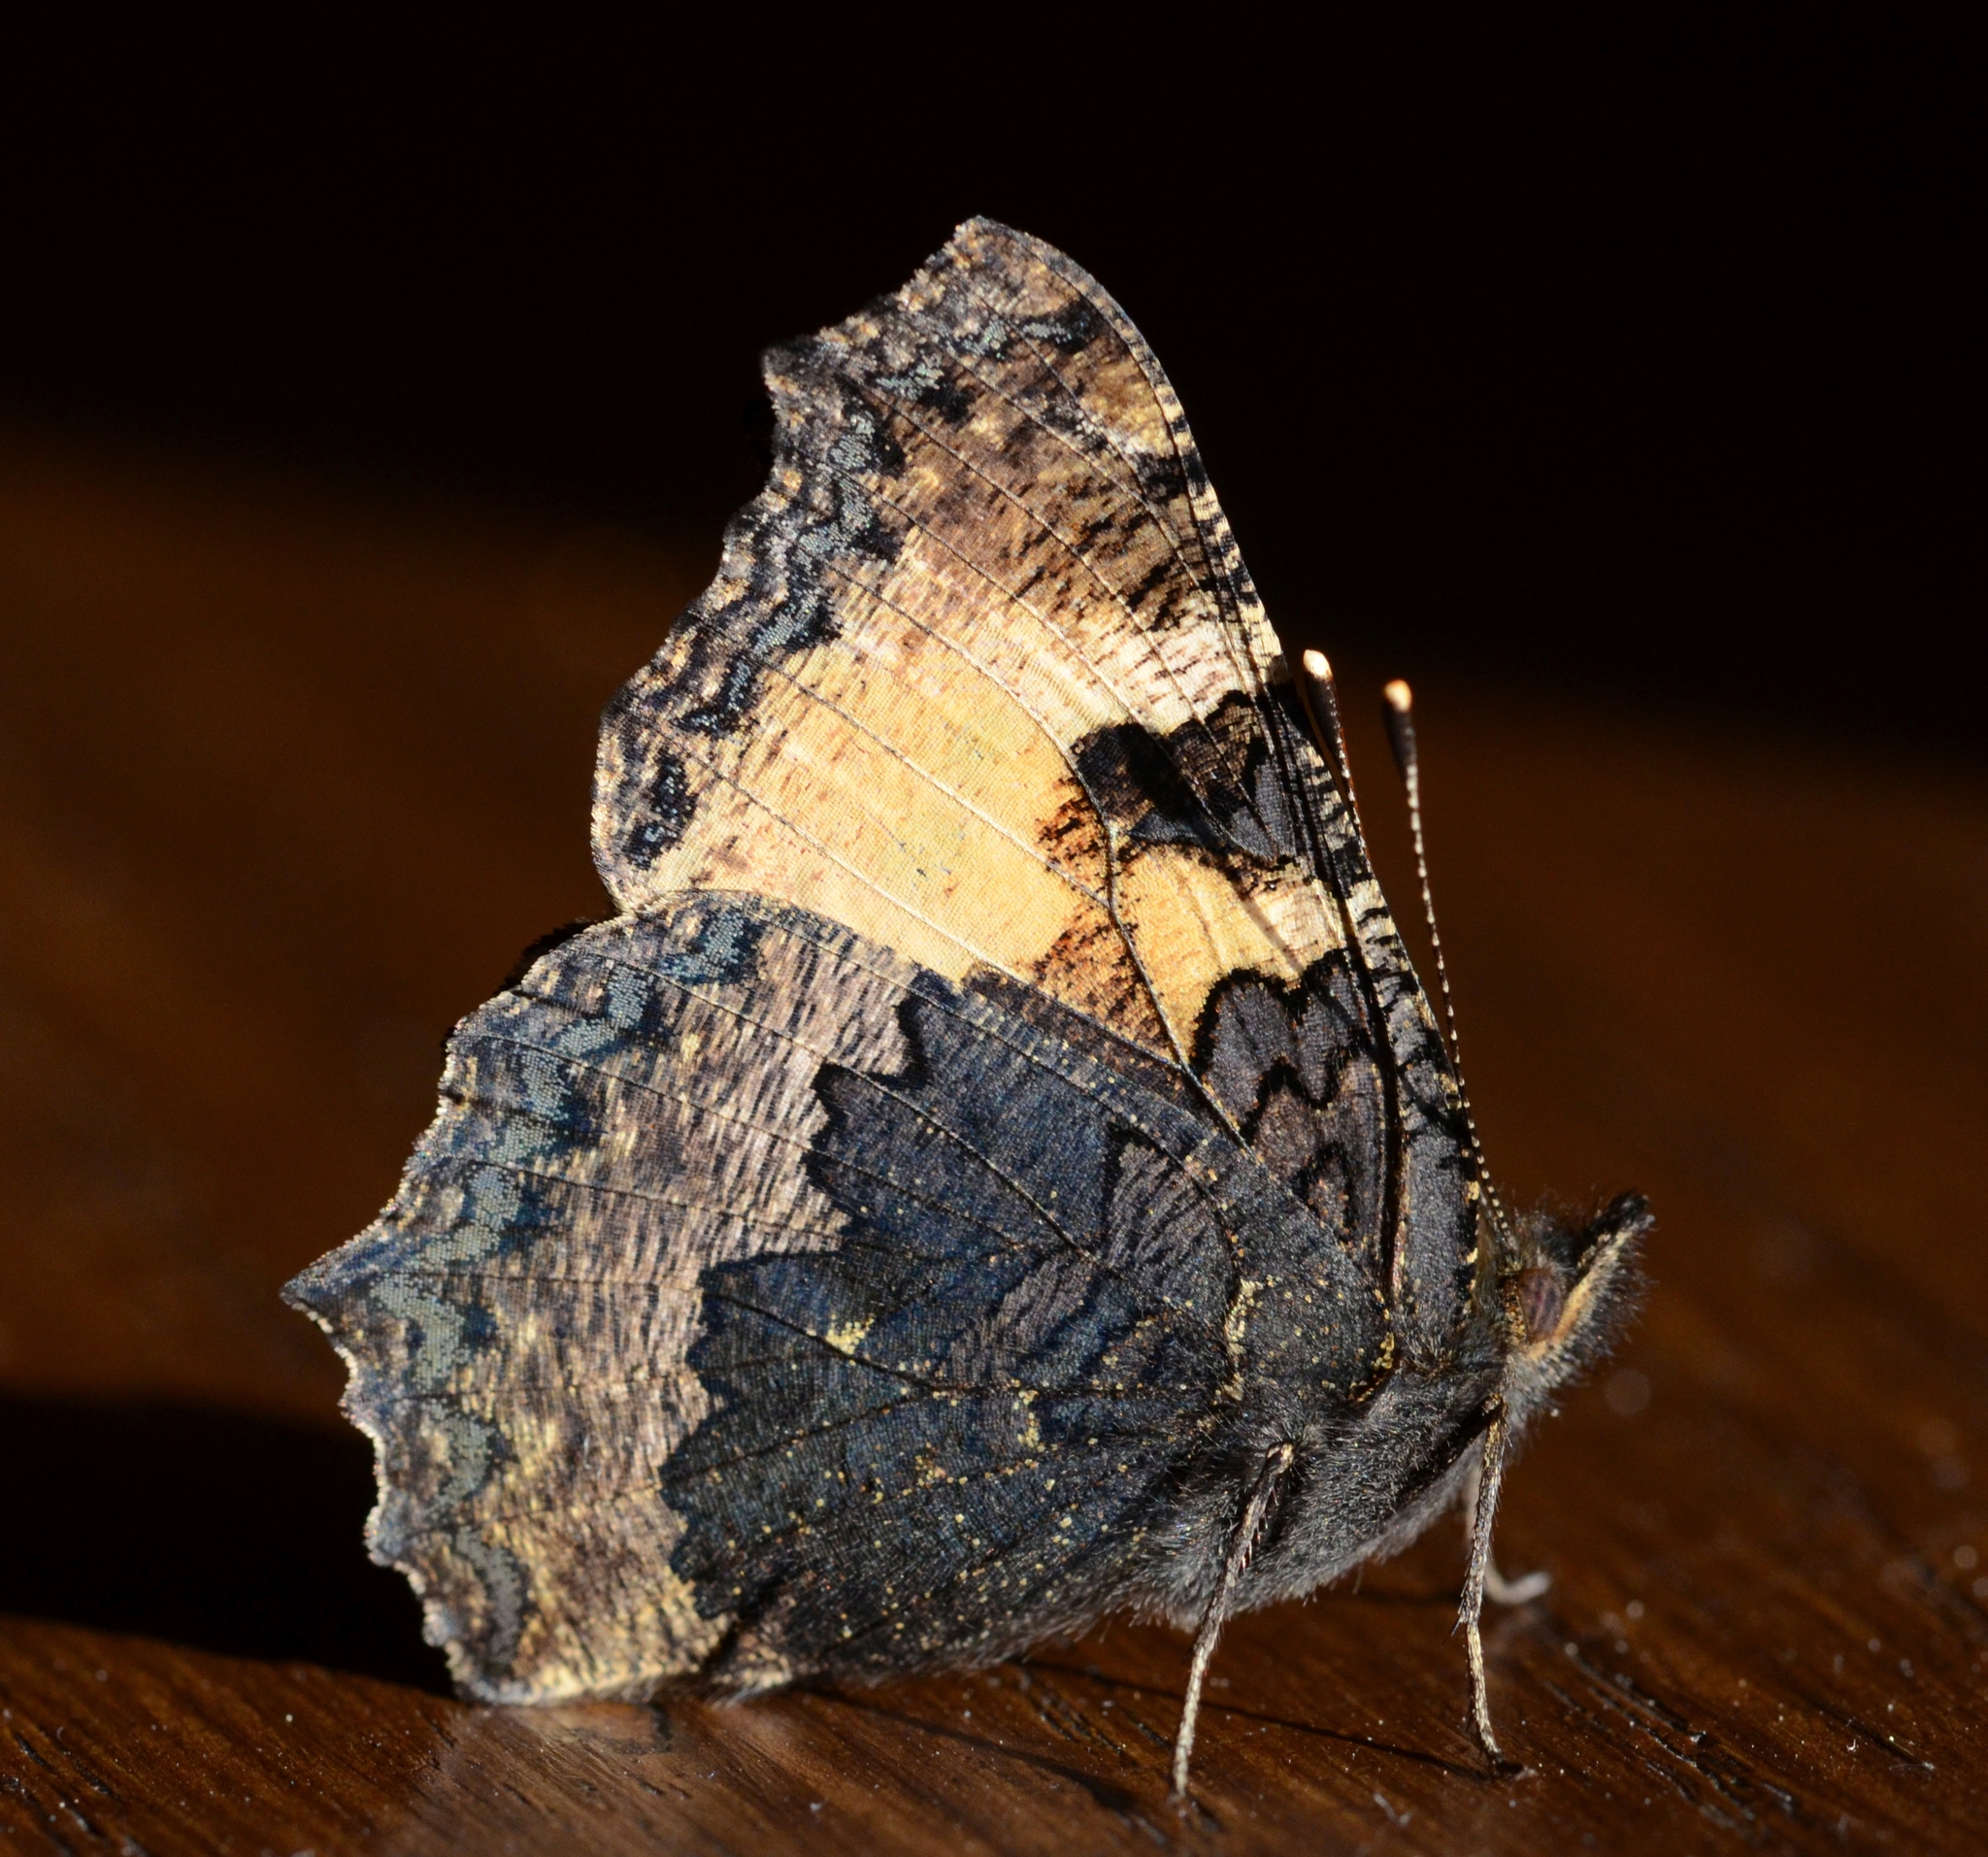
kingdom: Animalia
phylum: Arthropoda
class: Insecta
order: Lepidoptera
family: Nymphalidae
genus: Aglais
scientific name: Aglais urticae
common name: Small tortoiseshell
